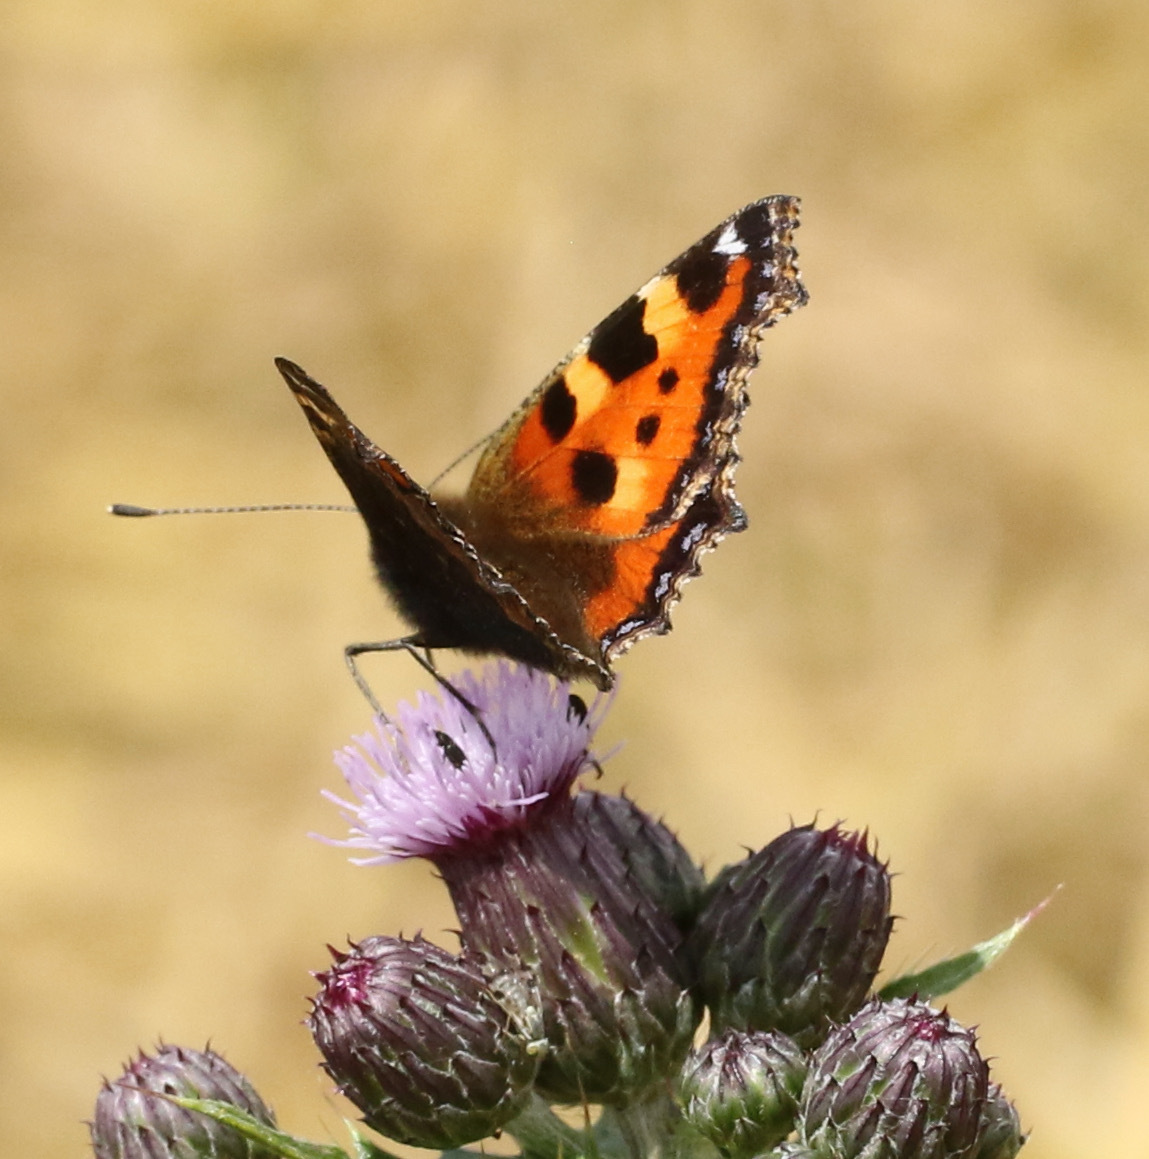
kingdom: Animalia
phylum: Arthropoda
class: Insecta
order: Lepidoptera
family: Nymphalidae
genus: Aglais
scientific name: Aglais urticae
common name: Small tortoiseshell
